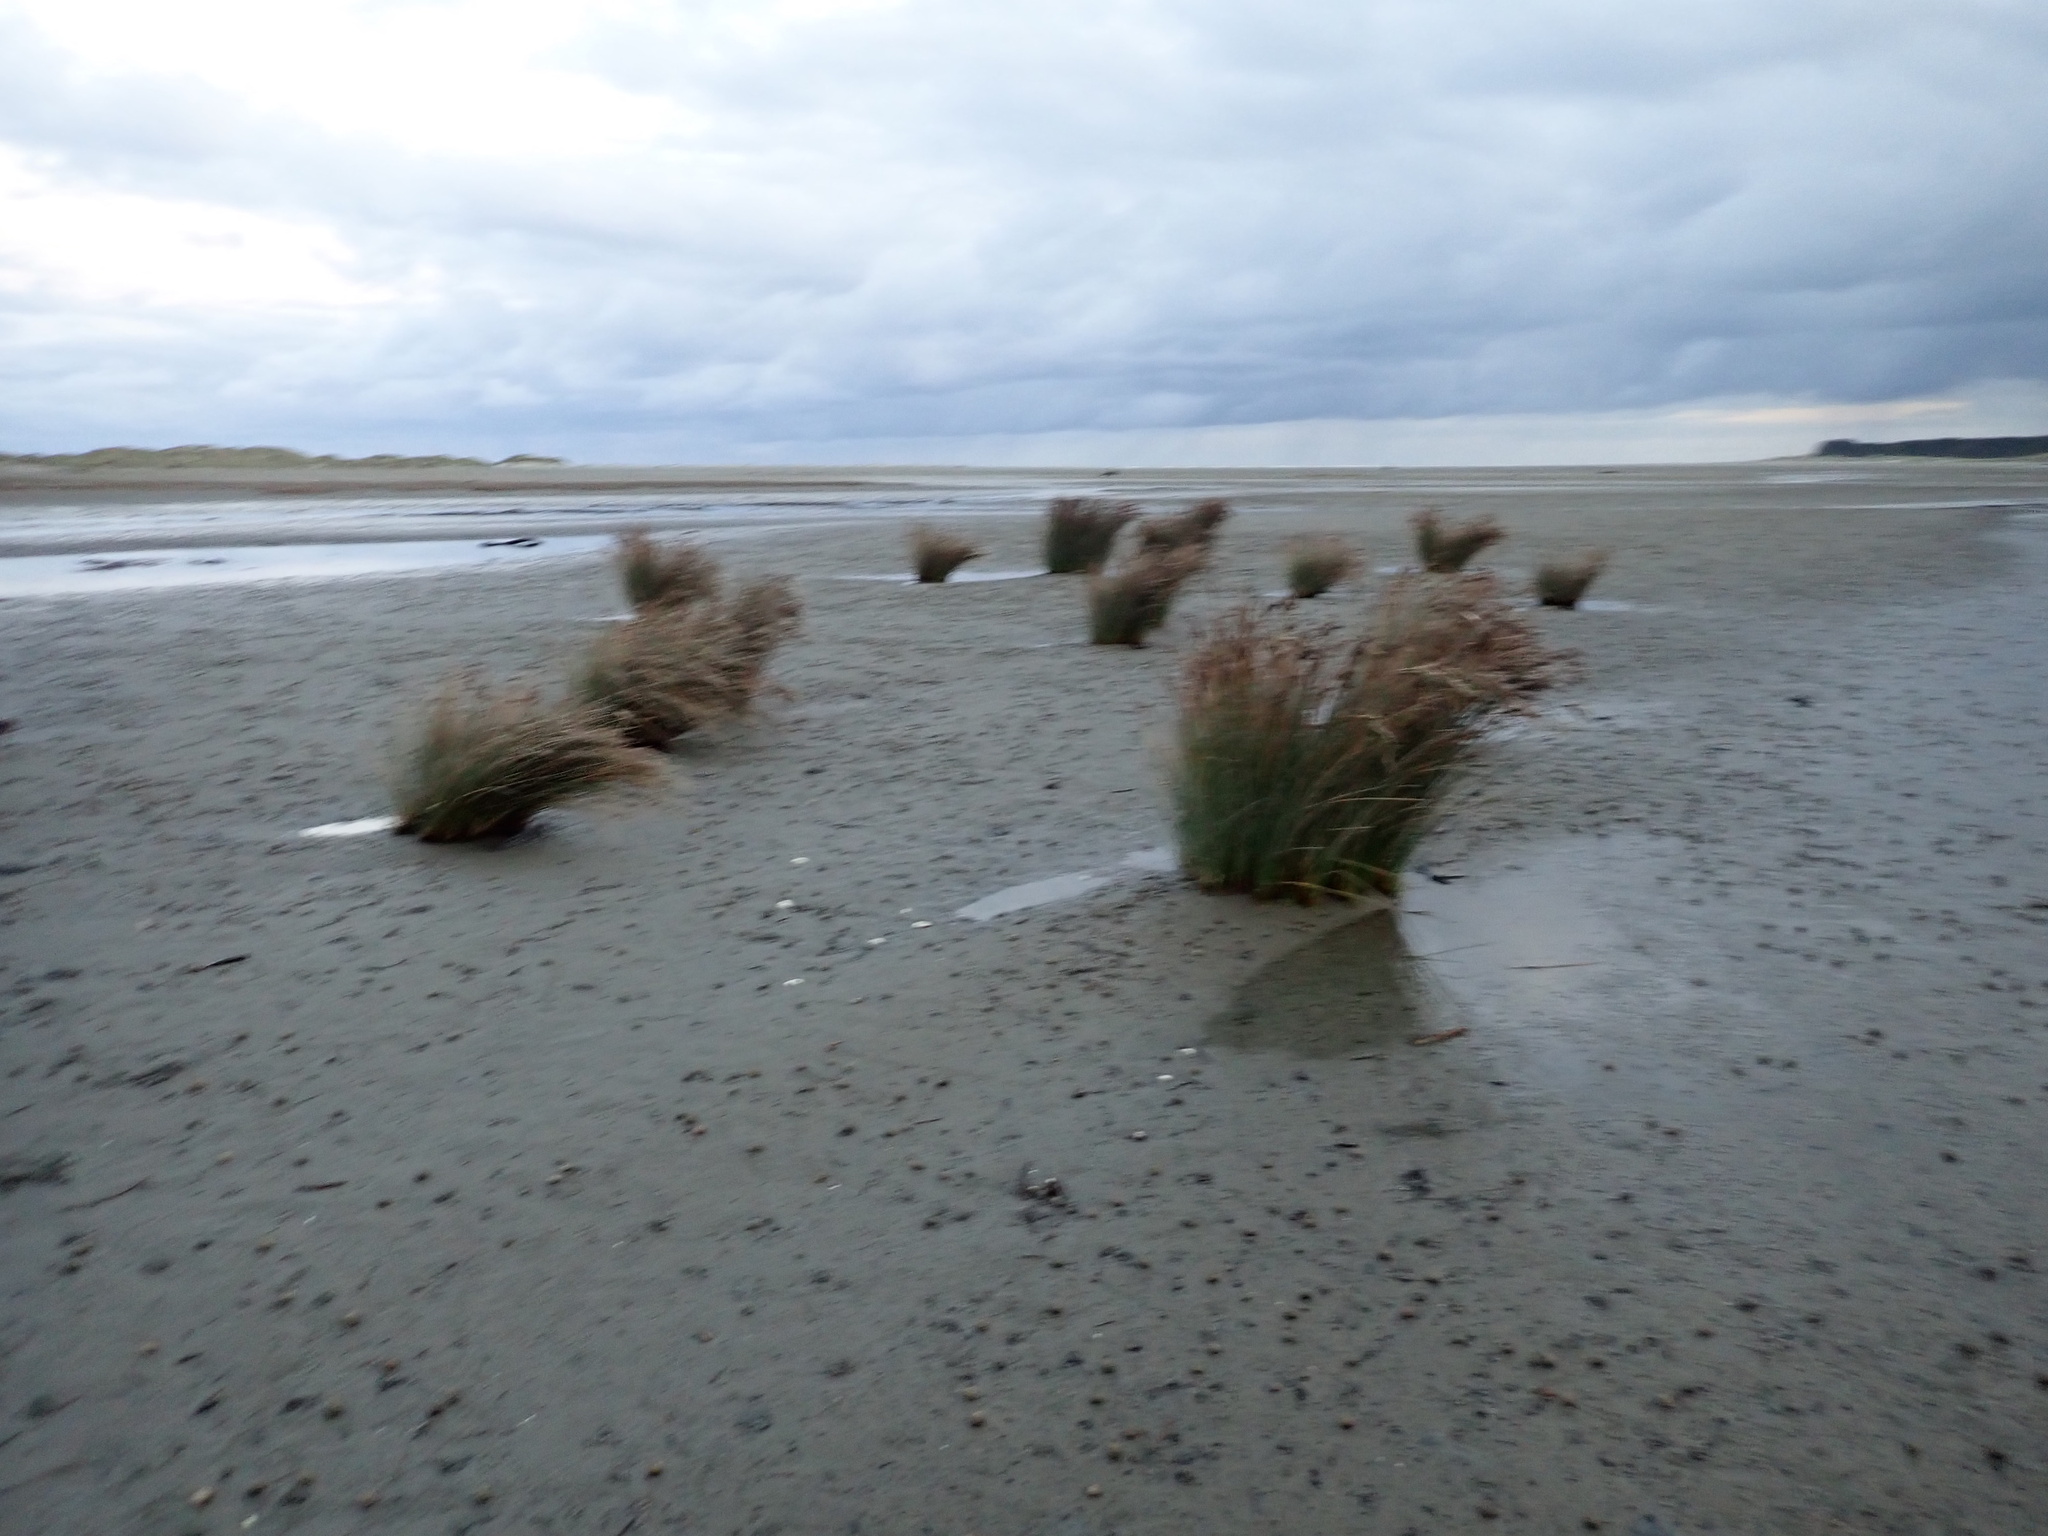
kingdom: Plantae
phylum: Tracheophyta
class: Liliopsida
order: Poales
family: Juncaceae
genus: Juncus
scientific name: Juncus kraussii
